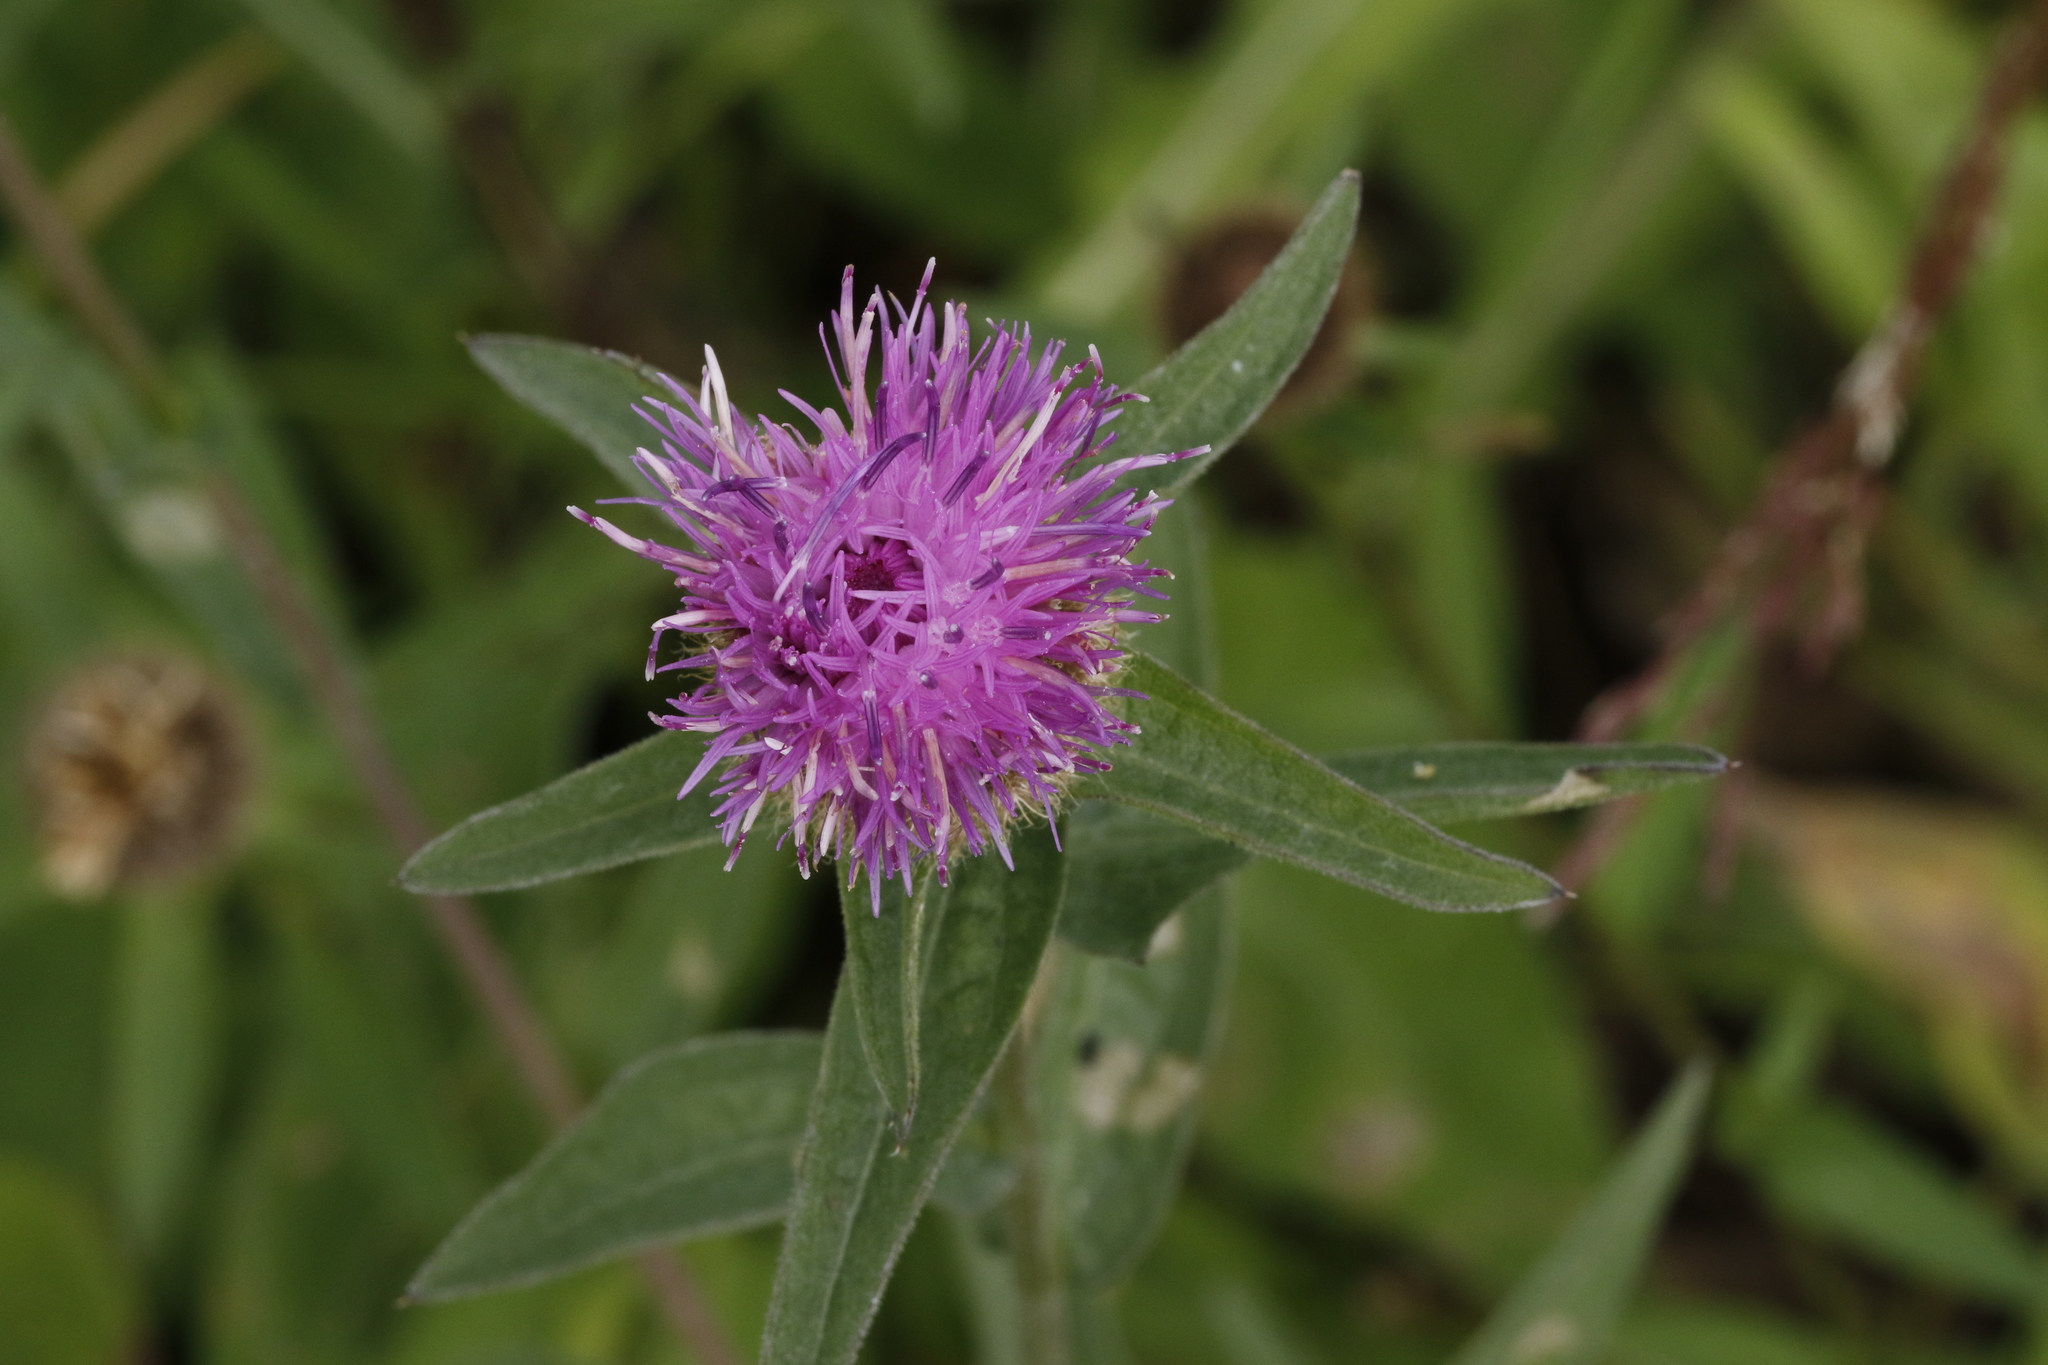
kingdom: Plantae
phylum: Tracheophyta
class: Magnoliopsida
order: Asterales
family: Asteraceae
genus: Centaurea
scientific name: Centaurea nigra
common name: Lesser knapweed
